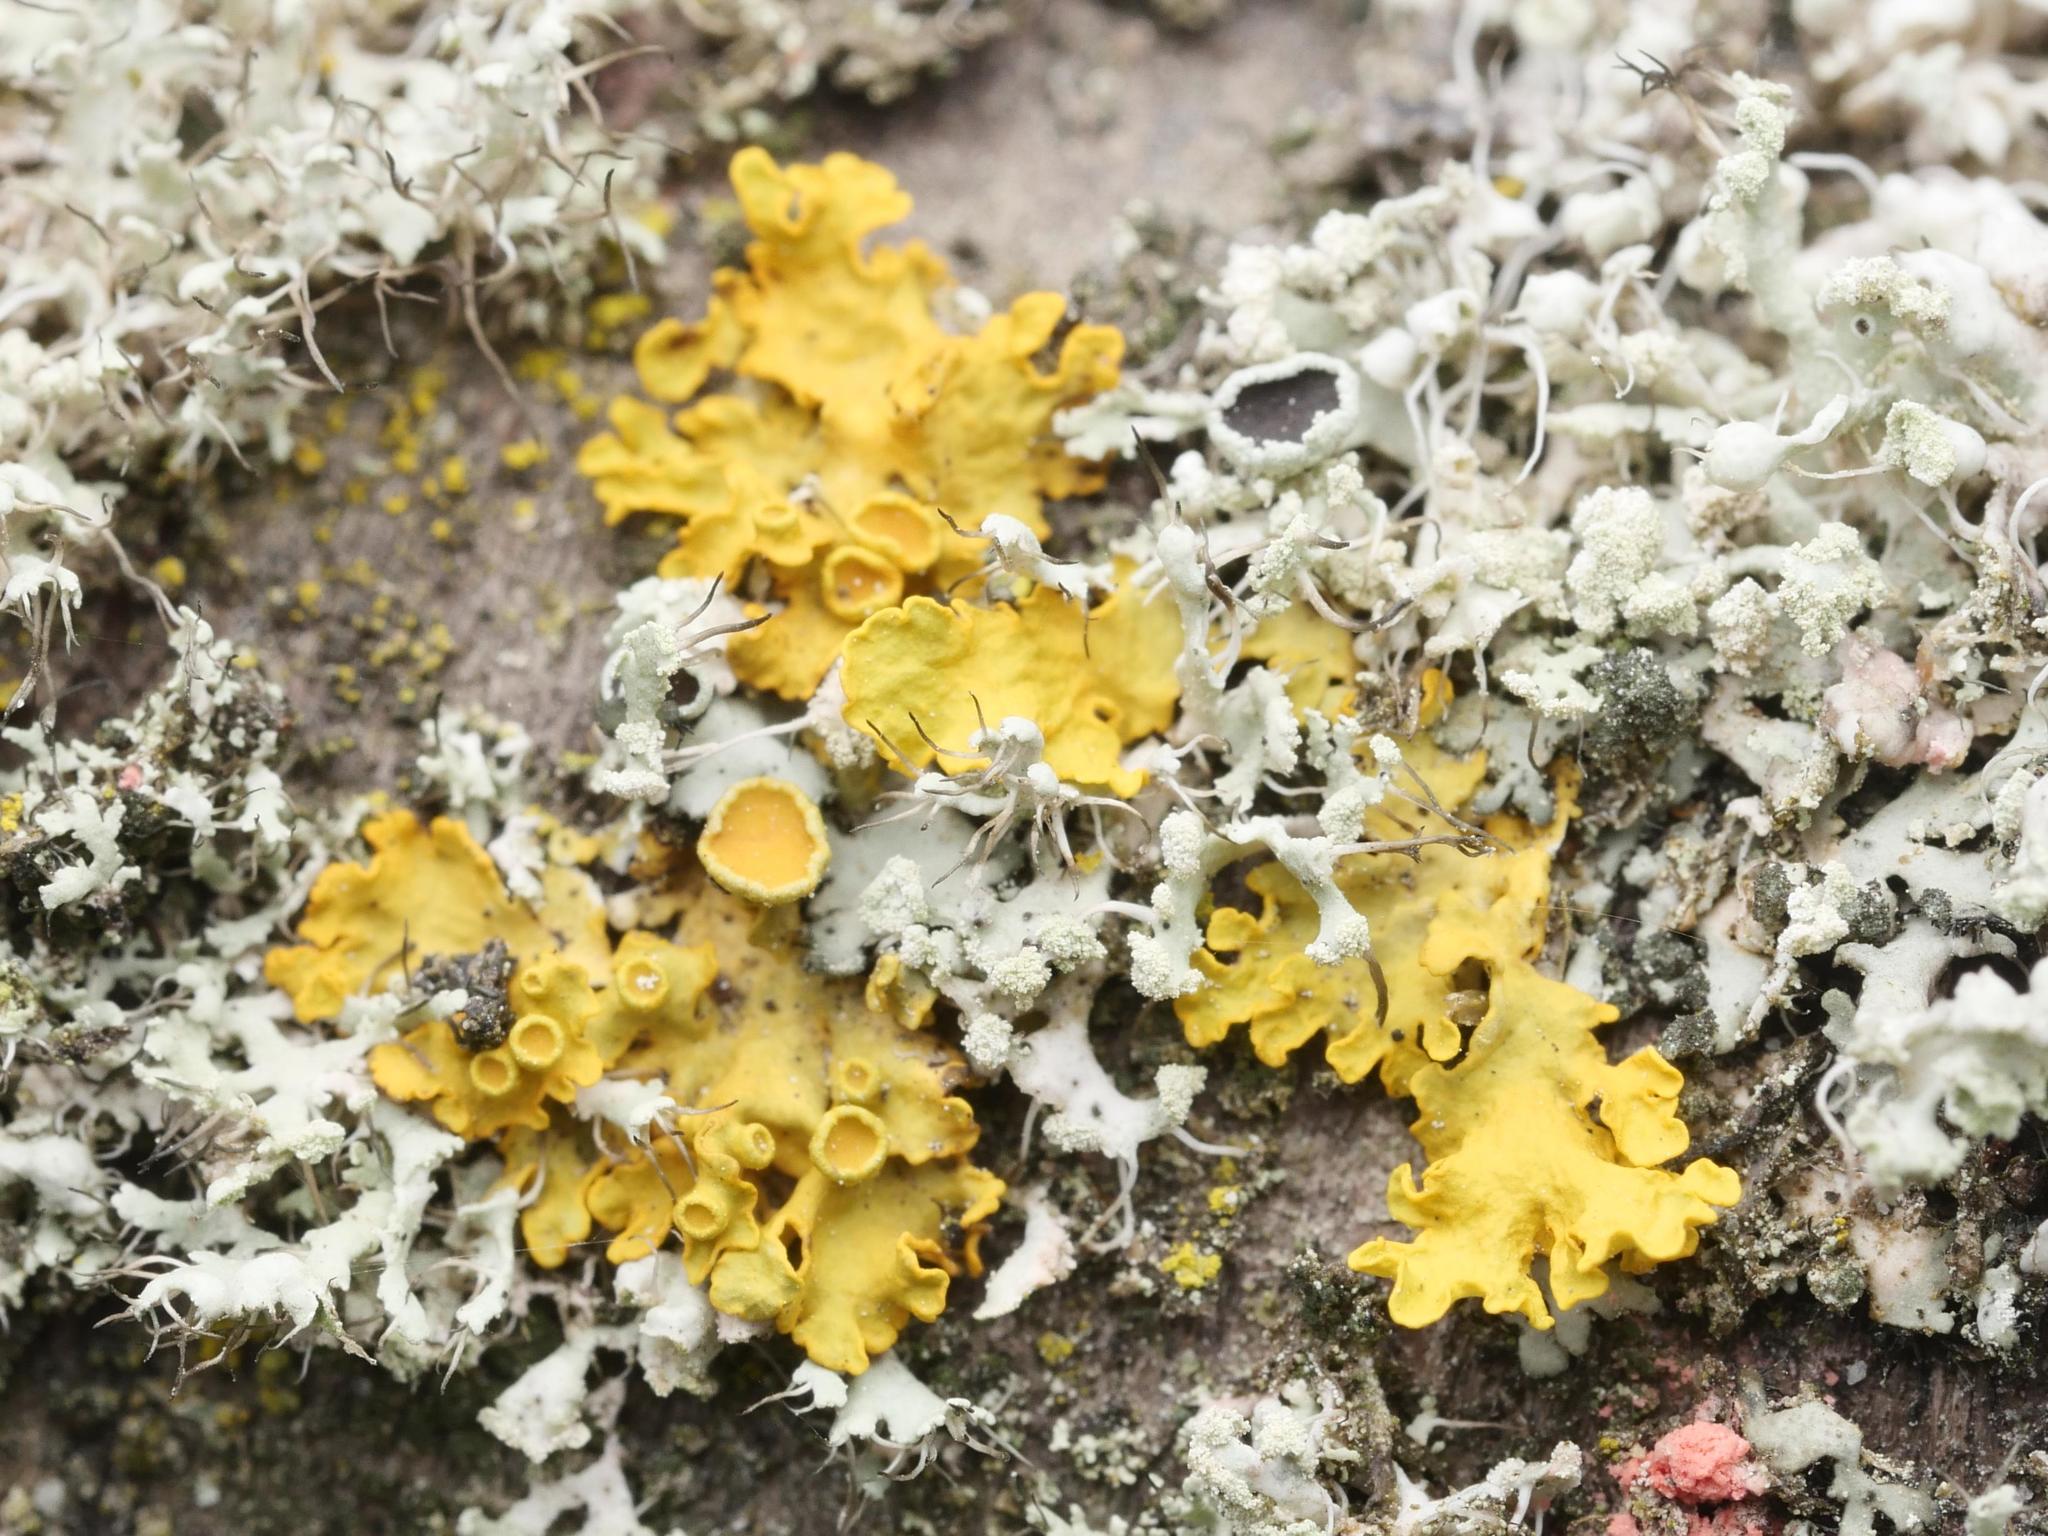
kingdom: Fungi
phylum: Ascomycota
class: Lecanoromycetes
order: Teloschistales
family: Teloschistaceae
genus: Xanthoria
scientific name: Xanthoria parietina
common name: Common orange lichen
